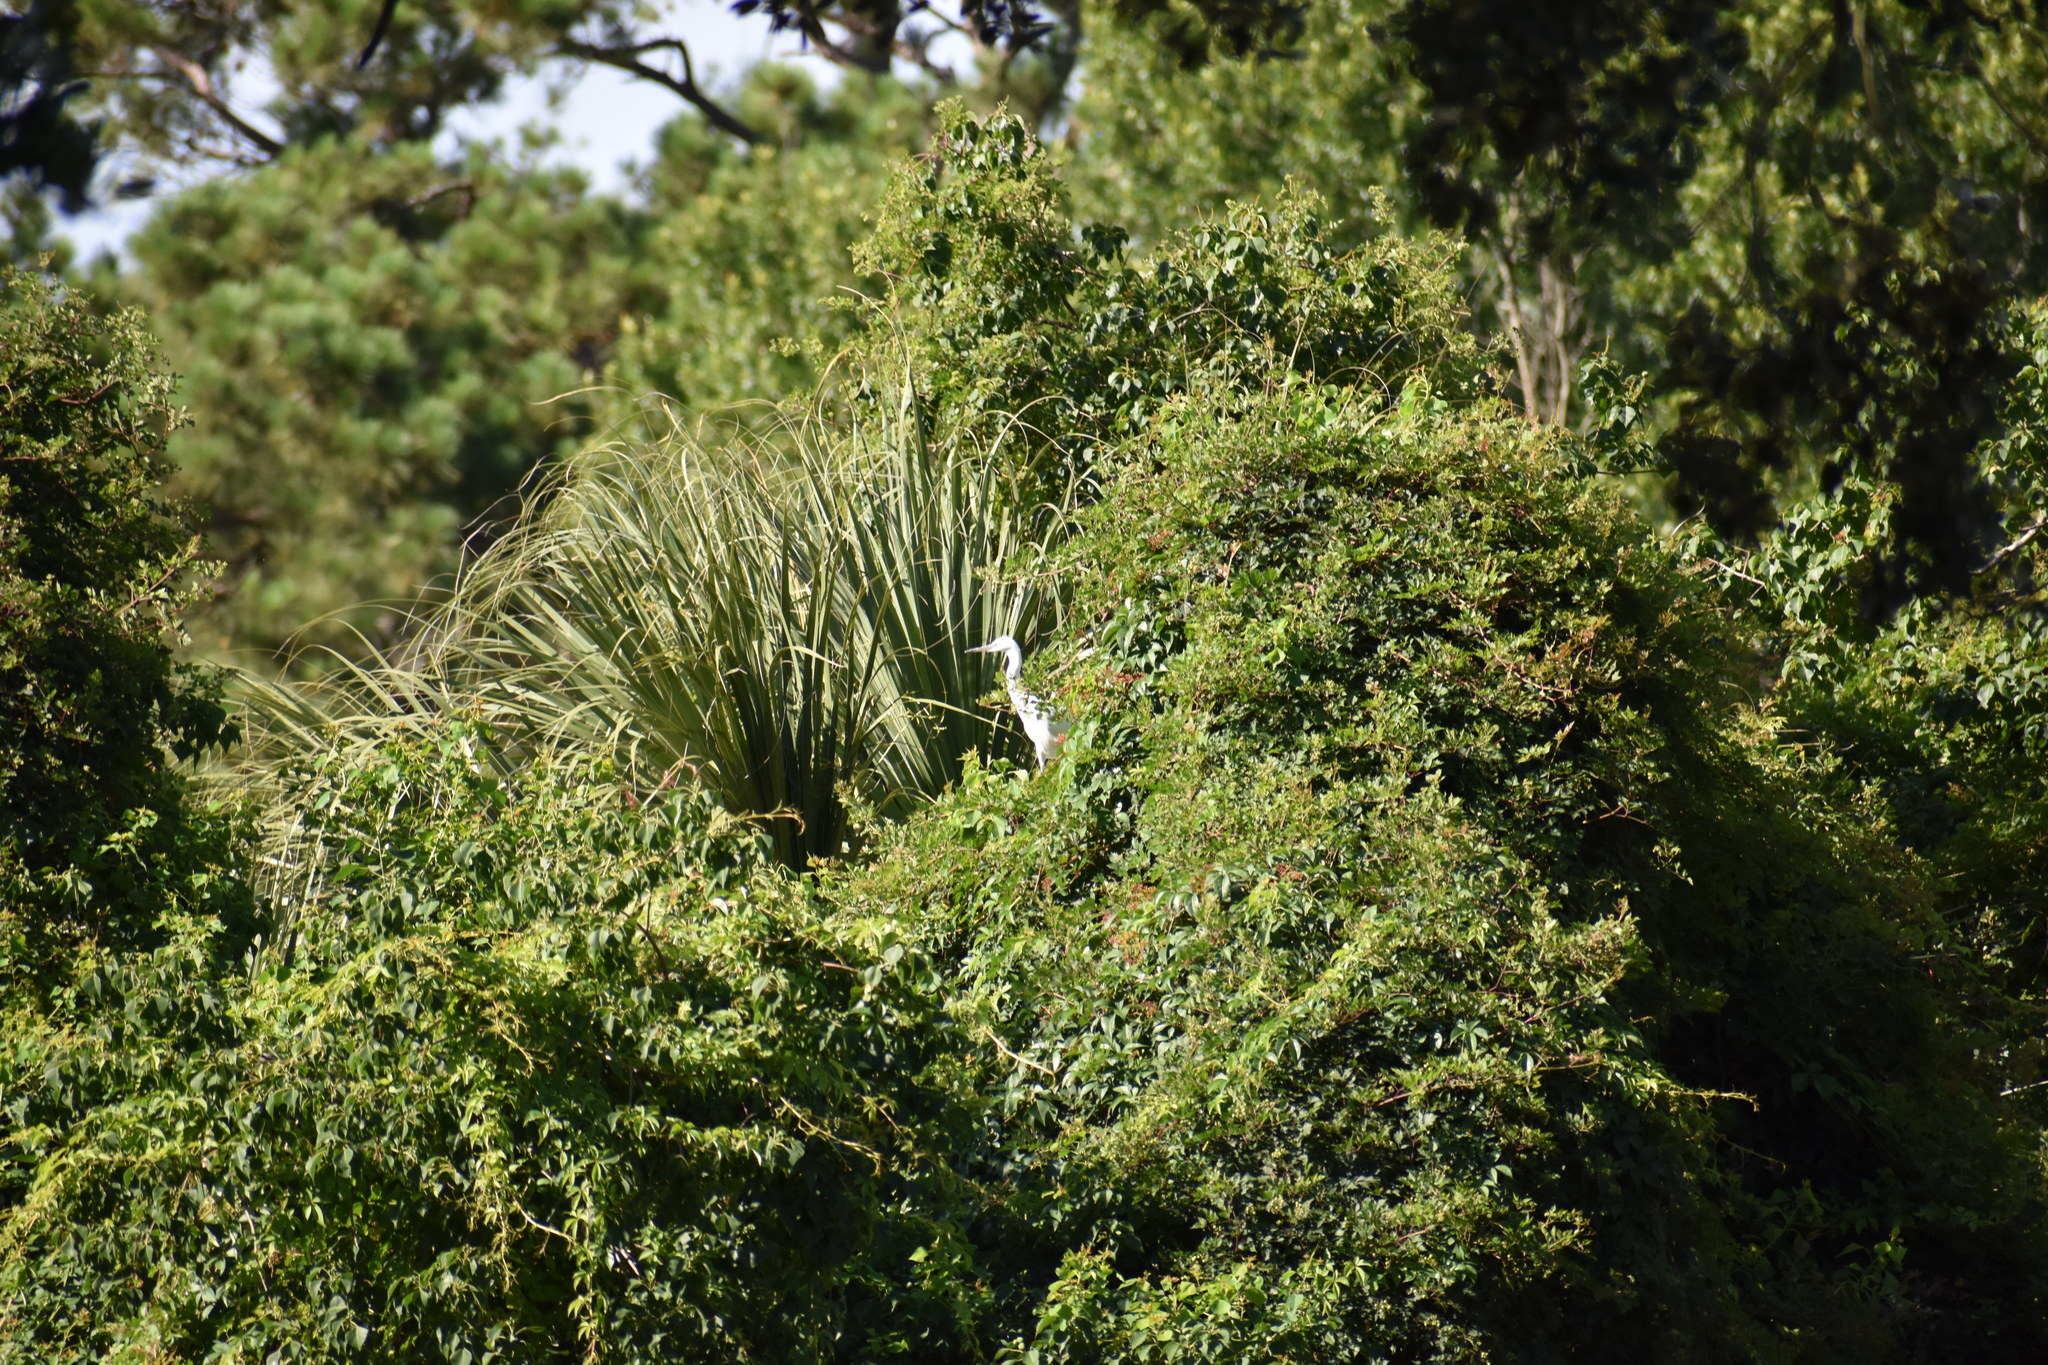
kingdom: Animalia
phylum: Chordata
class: Aves
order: Pelecaniformes
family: Ardeidae
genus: Ardea
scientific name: Ardea alba
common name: Great egret
